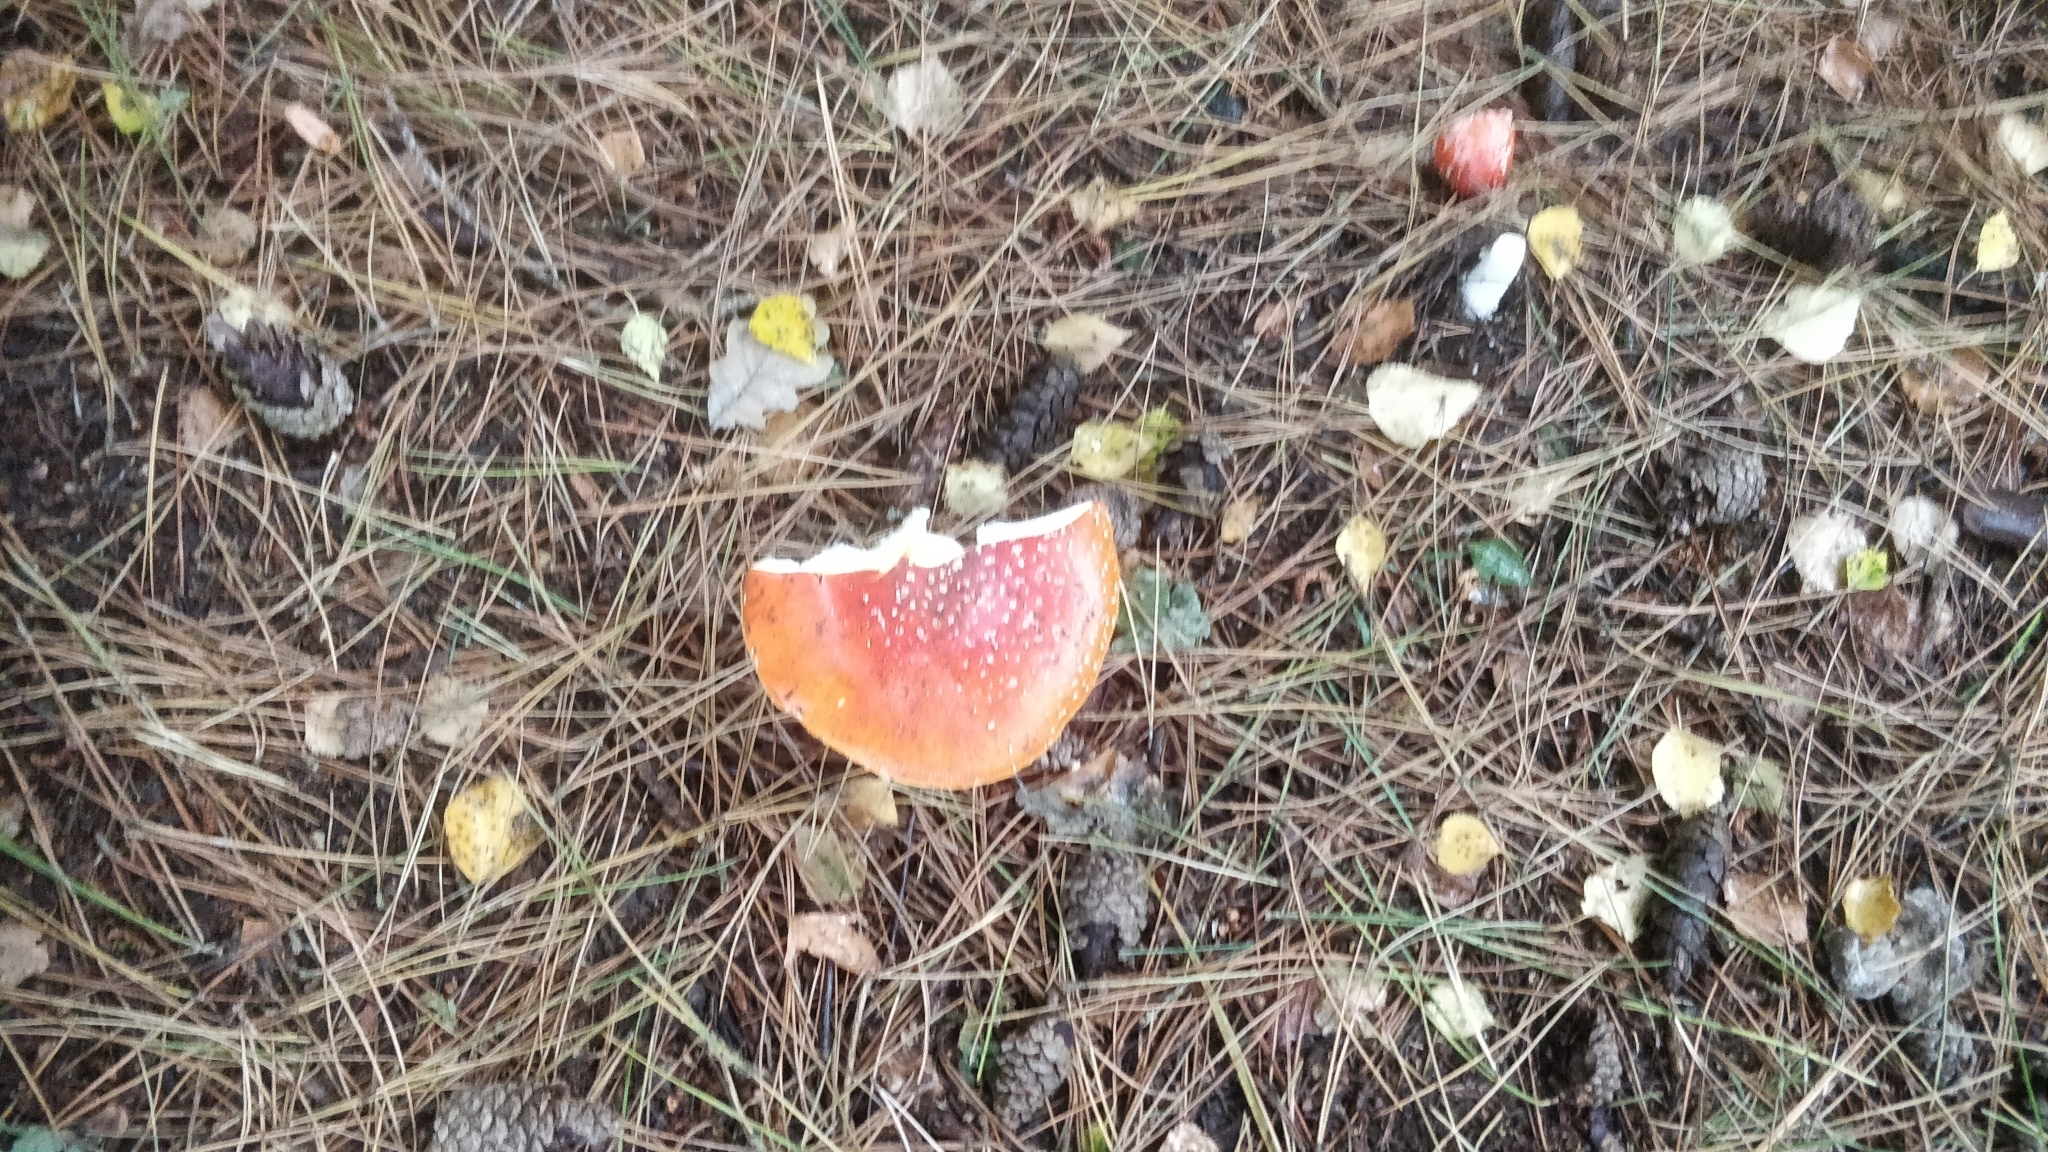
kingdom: Fungi
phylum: Basidiomycota
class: Agaricomycetes
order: Agaricales
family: Amanitaceae
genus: Amanita
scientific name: Amanita muscaria
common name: Fly agaric
